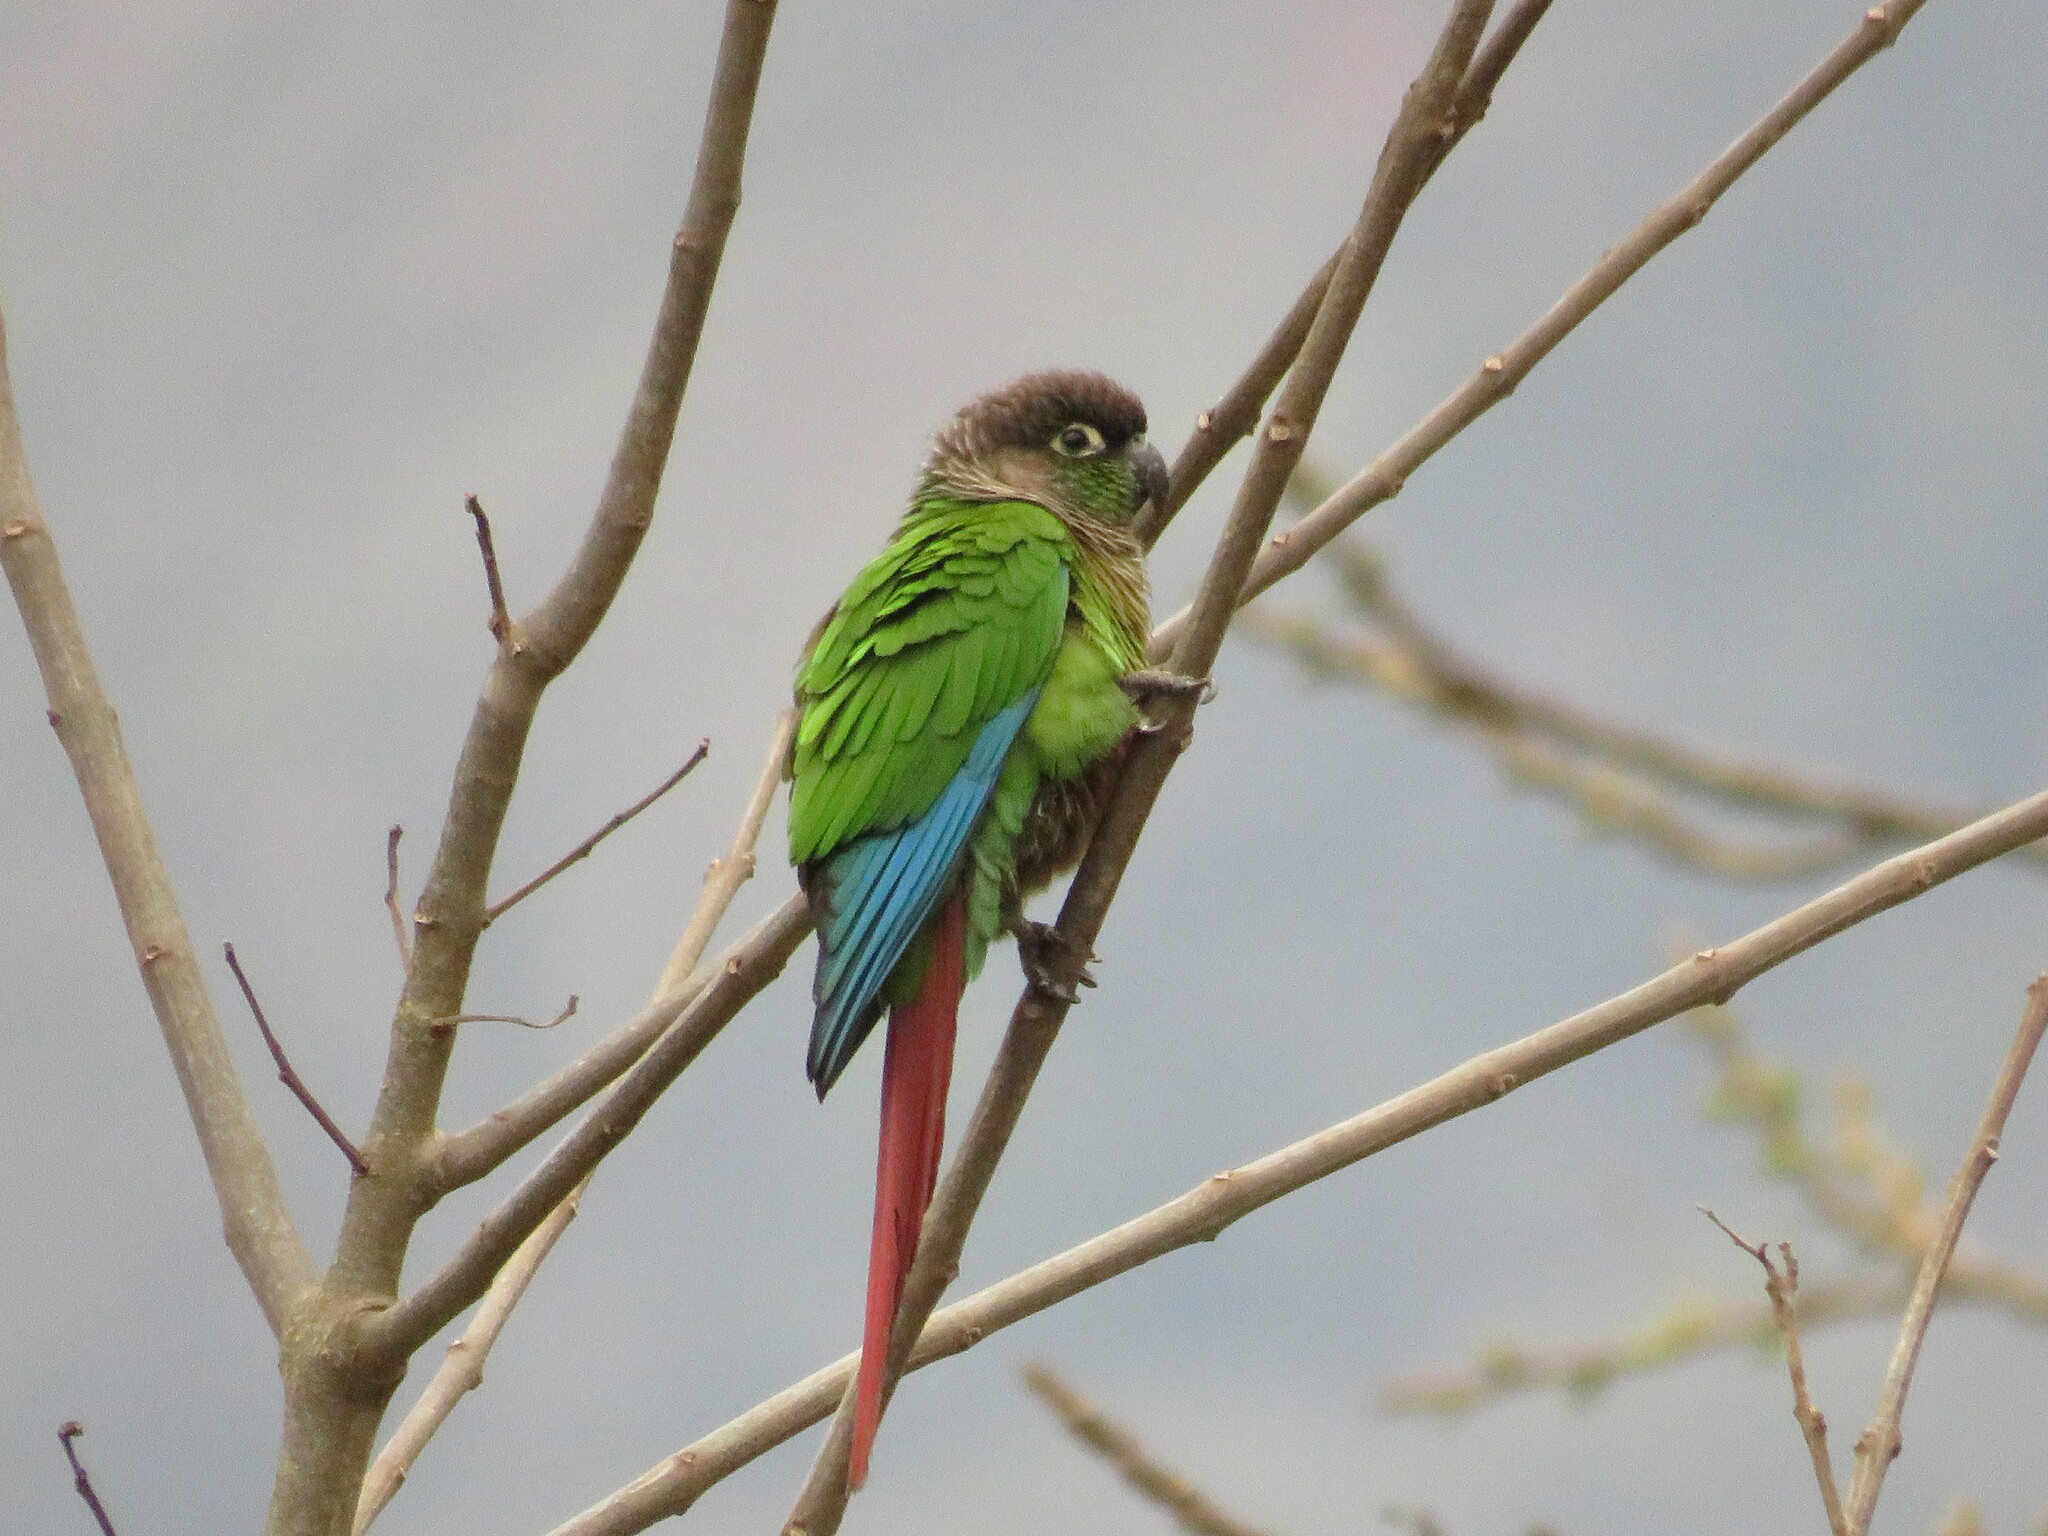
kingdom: Animalia
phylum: Chordata
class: Aves
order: Psittaciformes
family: Psittacidae
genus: Pyrrhura
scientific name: Pyrrhura molinae
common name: Green-cheeked parakeet
